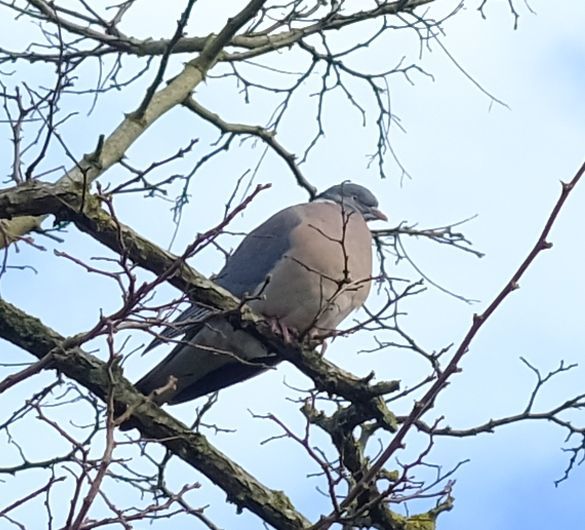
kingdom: Animalia
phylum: Chordata
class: Aves
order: Columbiformes
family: Columbidae
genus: Columba
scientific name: Columba palumbus
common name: Common wood pigeon
